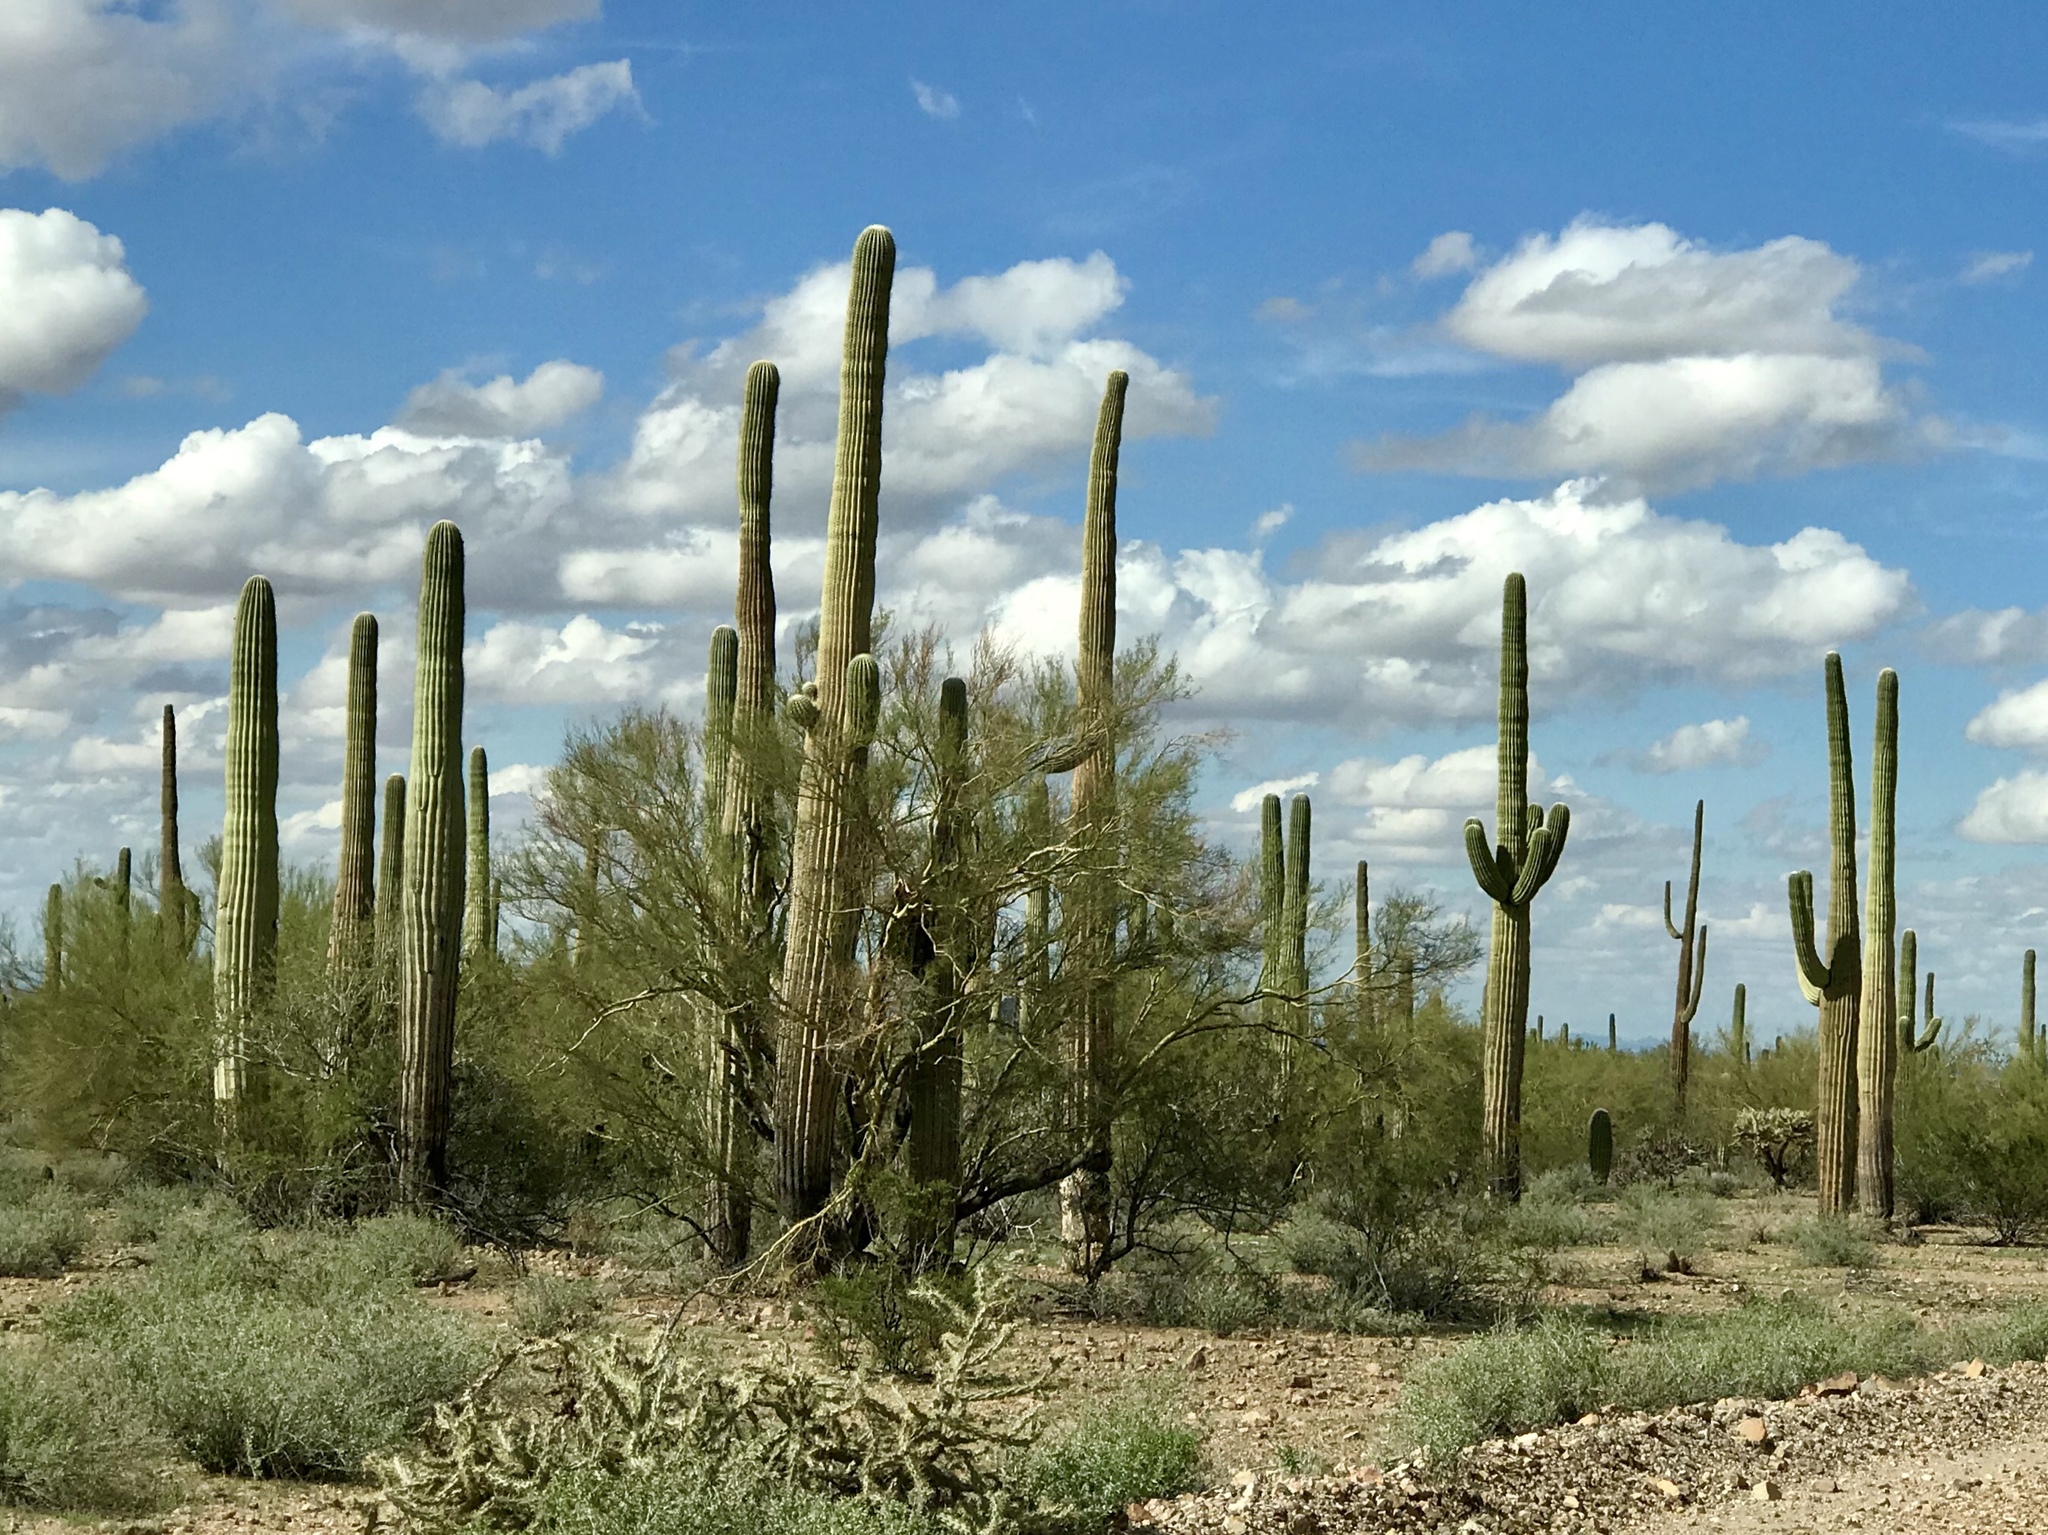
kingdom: Plantae
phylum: Tracheophyta
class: Magnoliopsida
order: Caryophyllales
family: Cactaceae
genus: Carnegiea
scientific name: Carnegiea gigantea
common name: Saguaro
